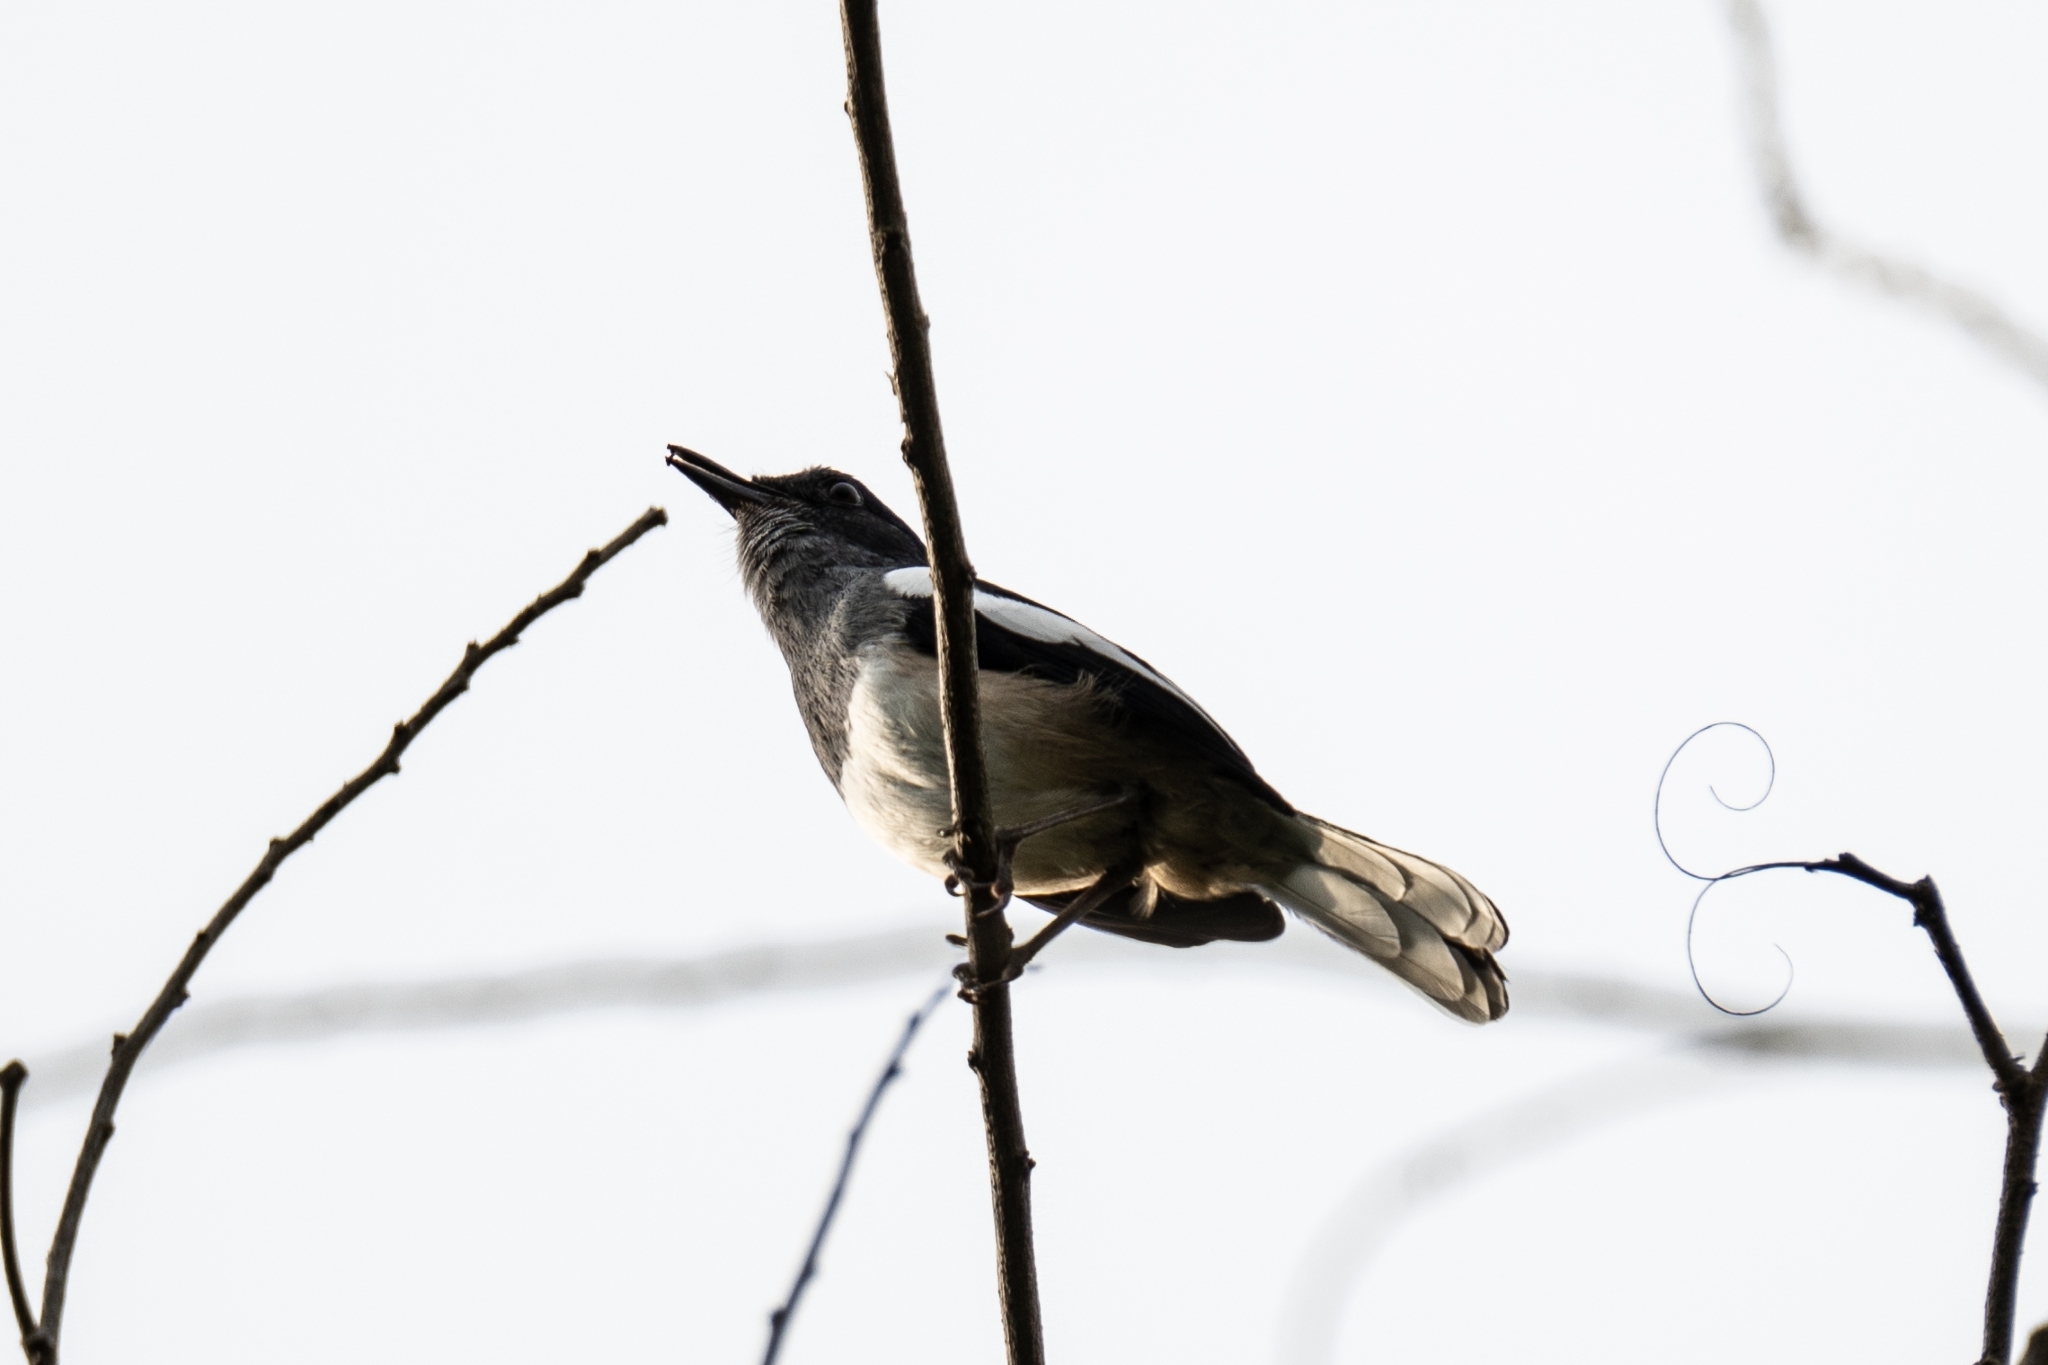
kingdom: Animalia
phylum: Chordata
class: Aves
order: Passeriformes
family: Muscicapidae
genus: Copsychus
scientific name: Copsychus saularis
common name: Oriental magpie-robin
